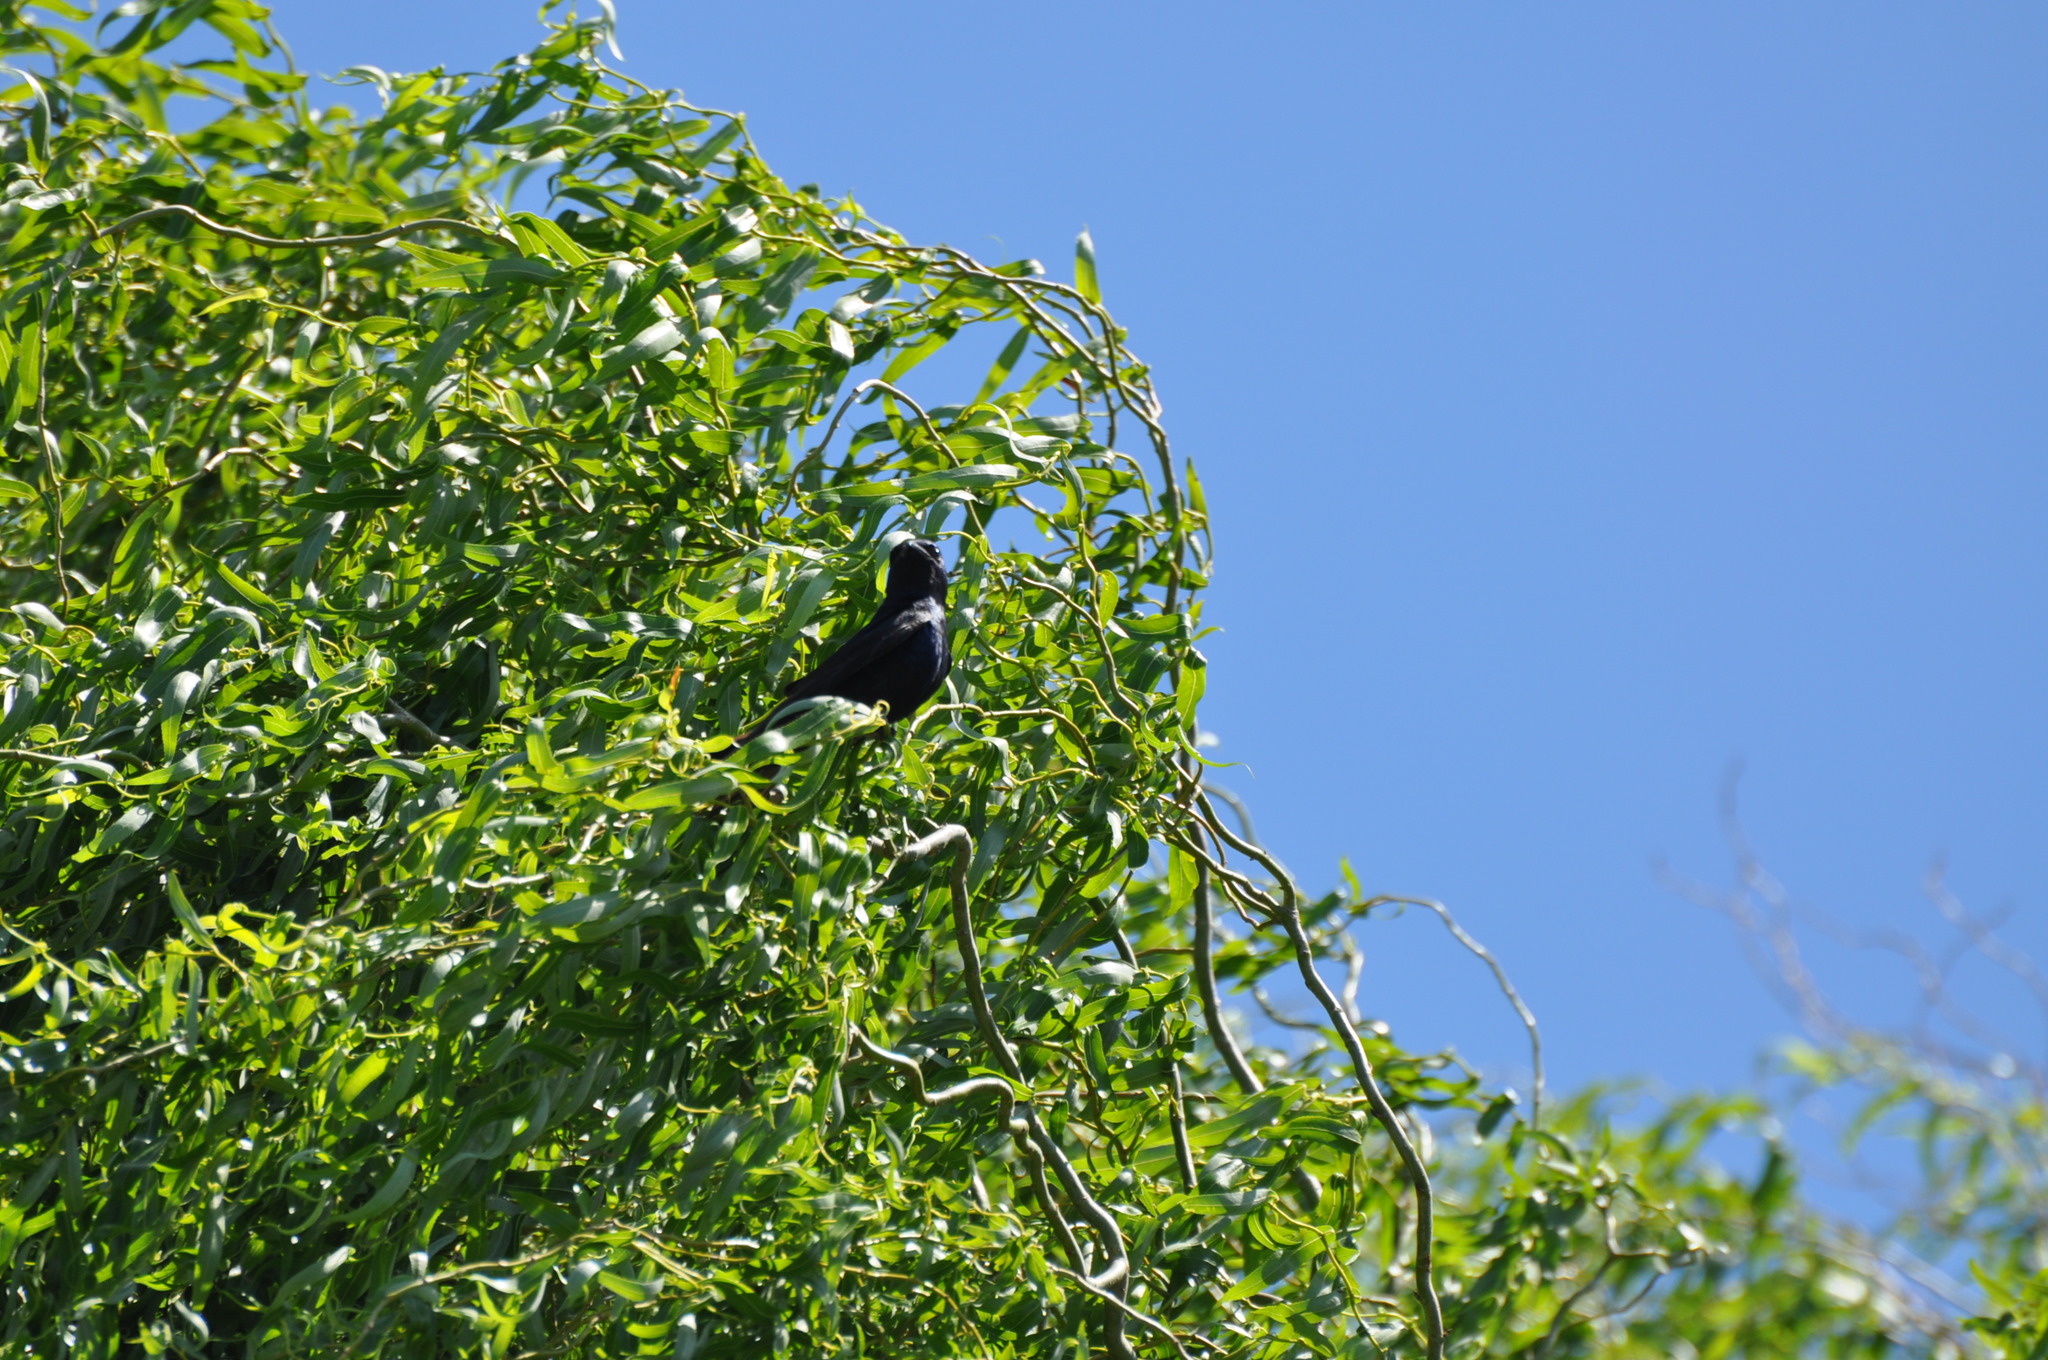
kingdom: Animalia
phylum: Chordata
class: Aves
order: Passeriformes
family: Hirundinidae
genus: Progne
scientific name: Progne subis
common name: Purple martin
